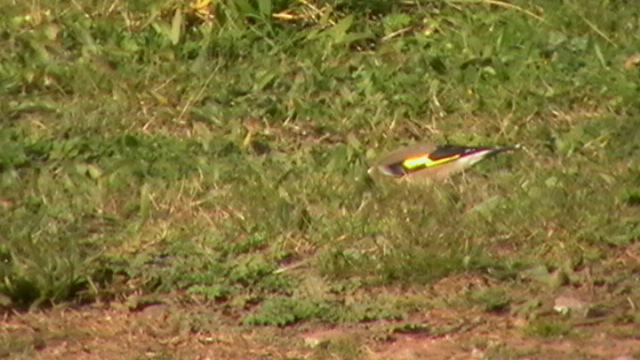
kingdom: Animalia
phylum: Chordata
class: Aves
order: Passeriformes
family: Fringillidae
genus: Carduelis
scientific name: Carduelis carduelis
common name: European goldfinch
